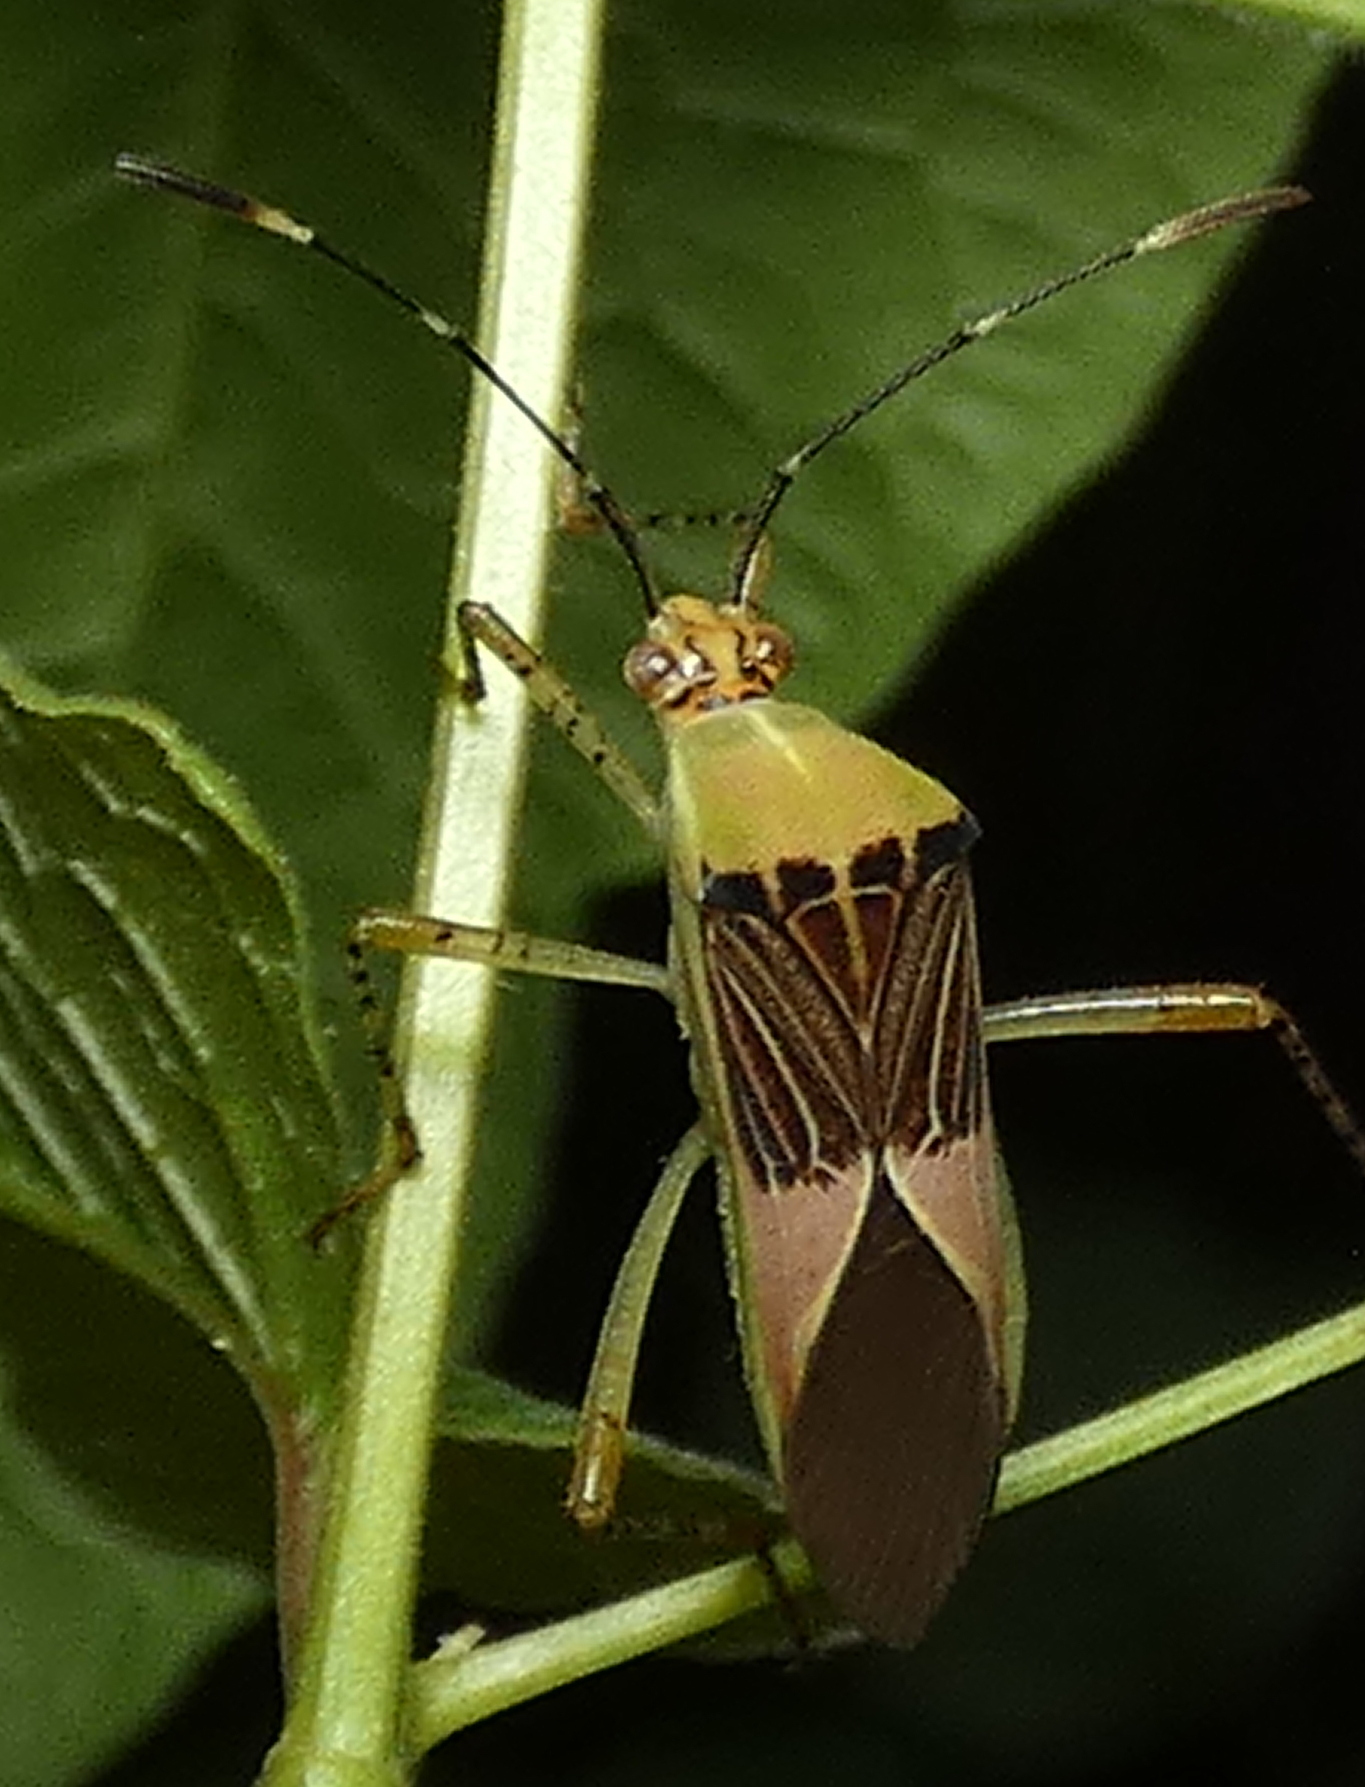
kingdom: Animalia
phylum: Arthropoda
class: Insecta
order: Hemiptera
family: Coreidae
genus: Hypselonotus
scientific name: Hypselonotus fulvus
